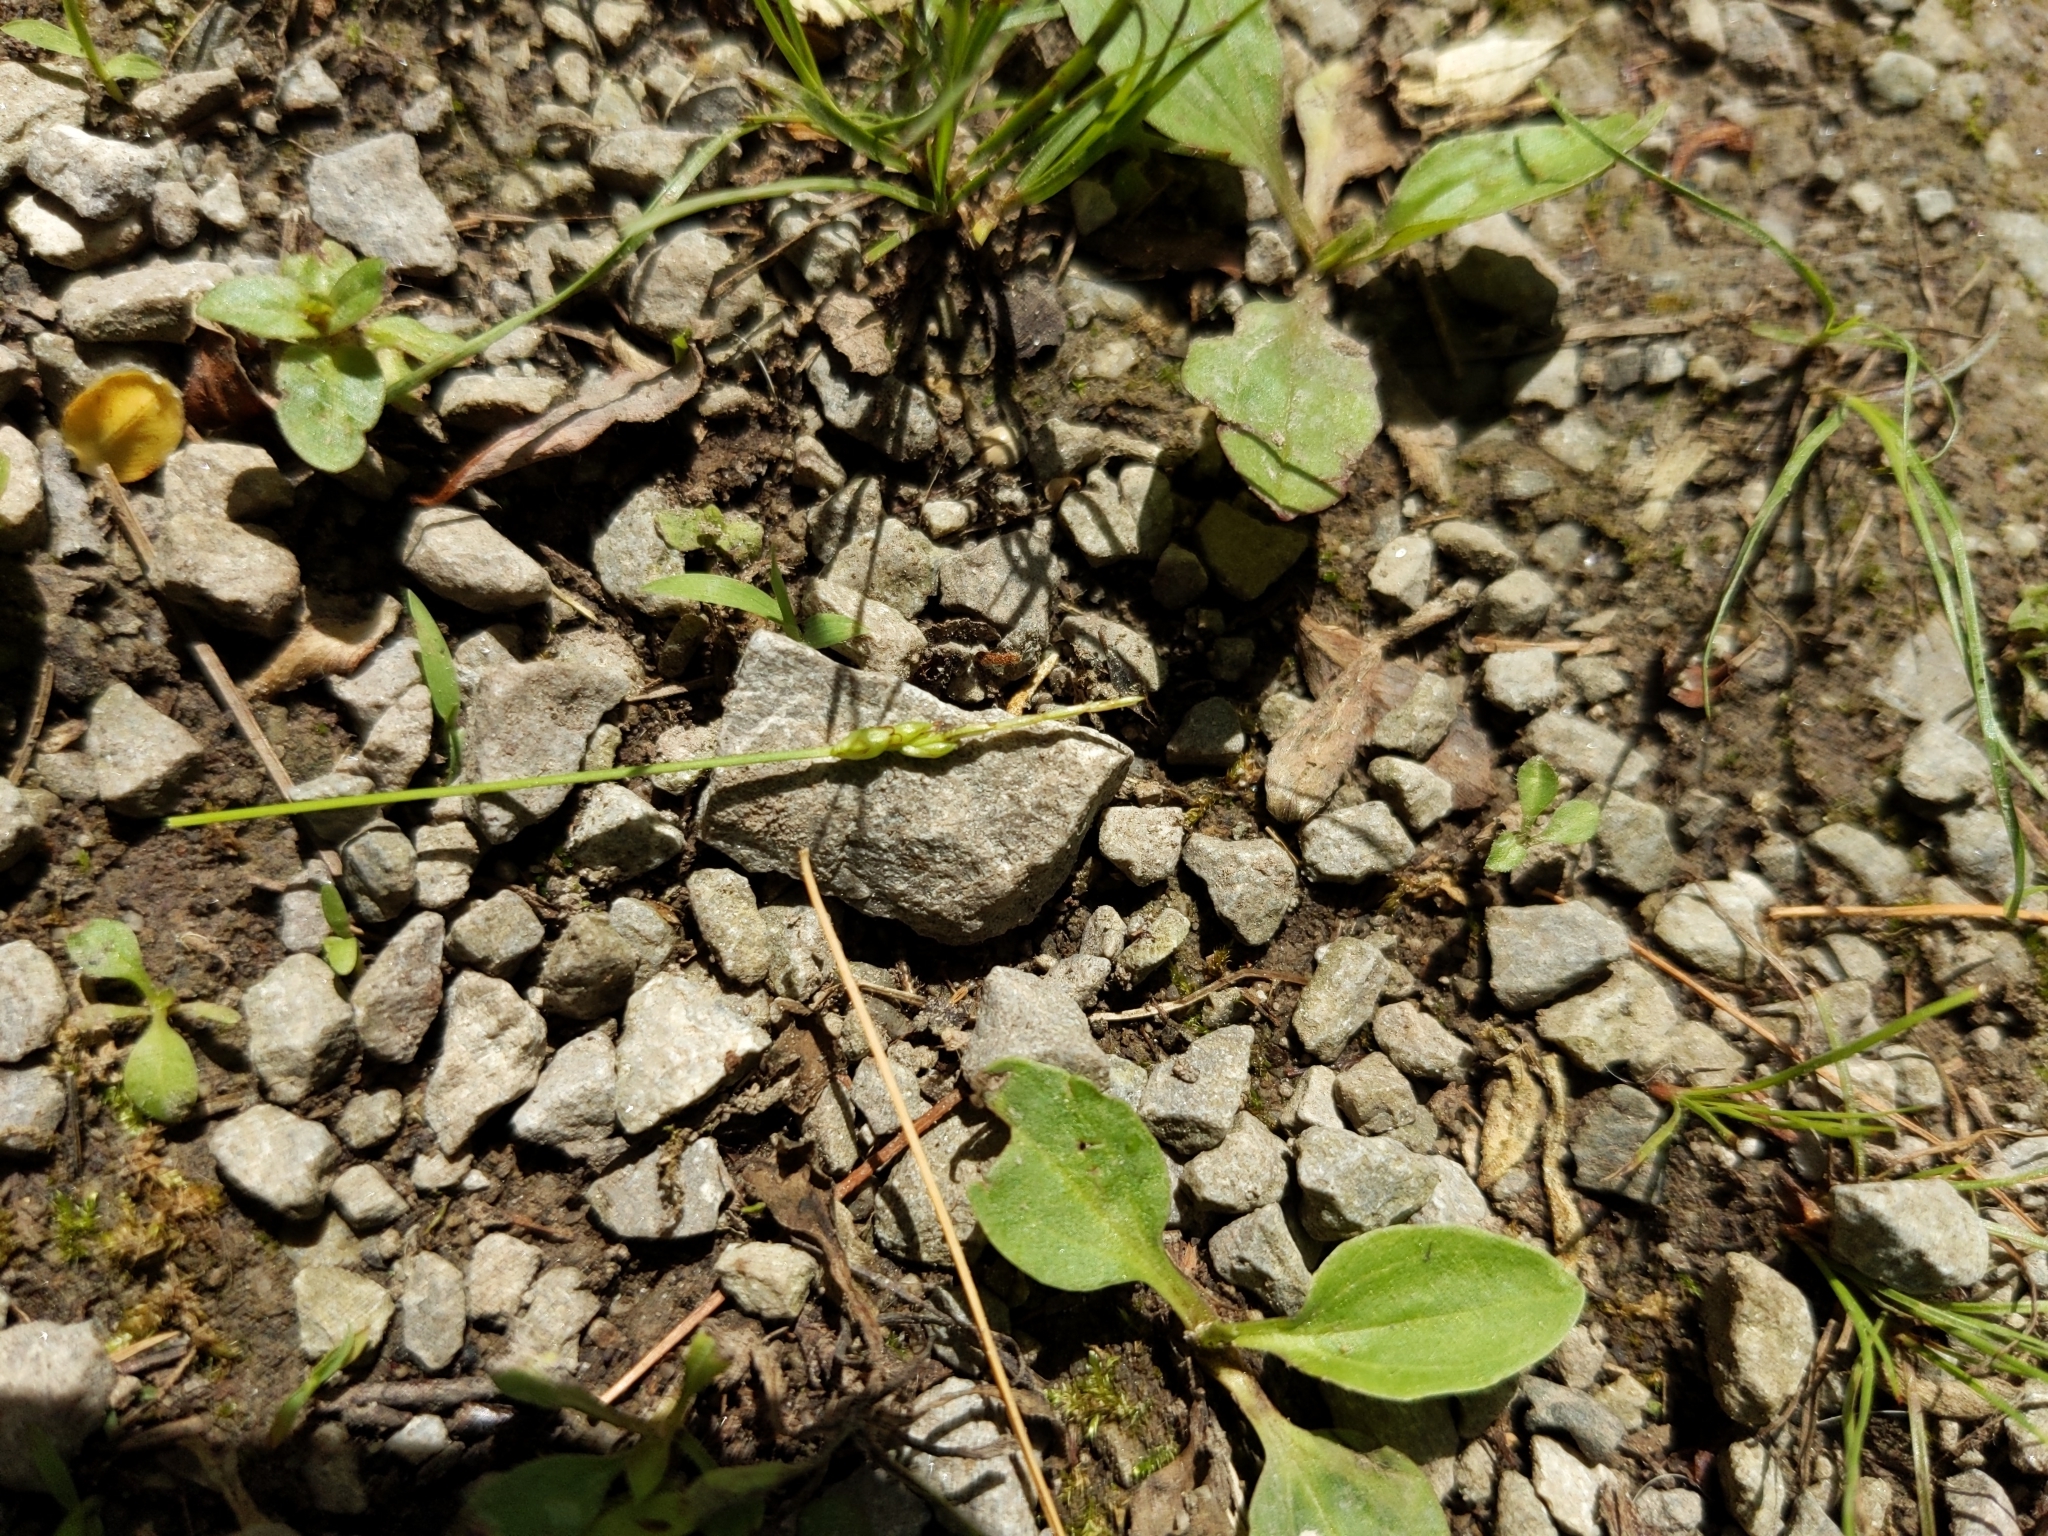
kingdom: Plantae
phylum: Tracheophyta
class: Liliopsida
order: Poales
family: Cyperaceae
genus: Carex
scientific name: Carex leptalea
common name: Bristly-stalked sedge
